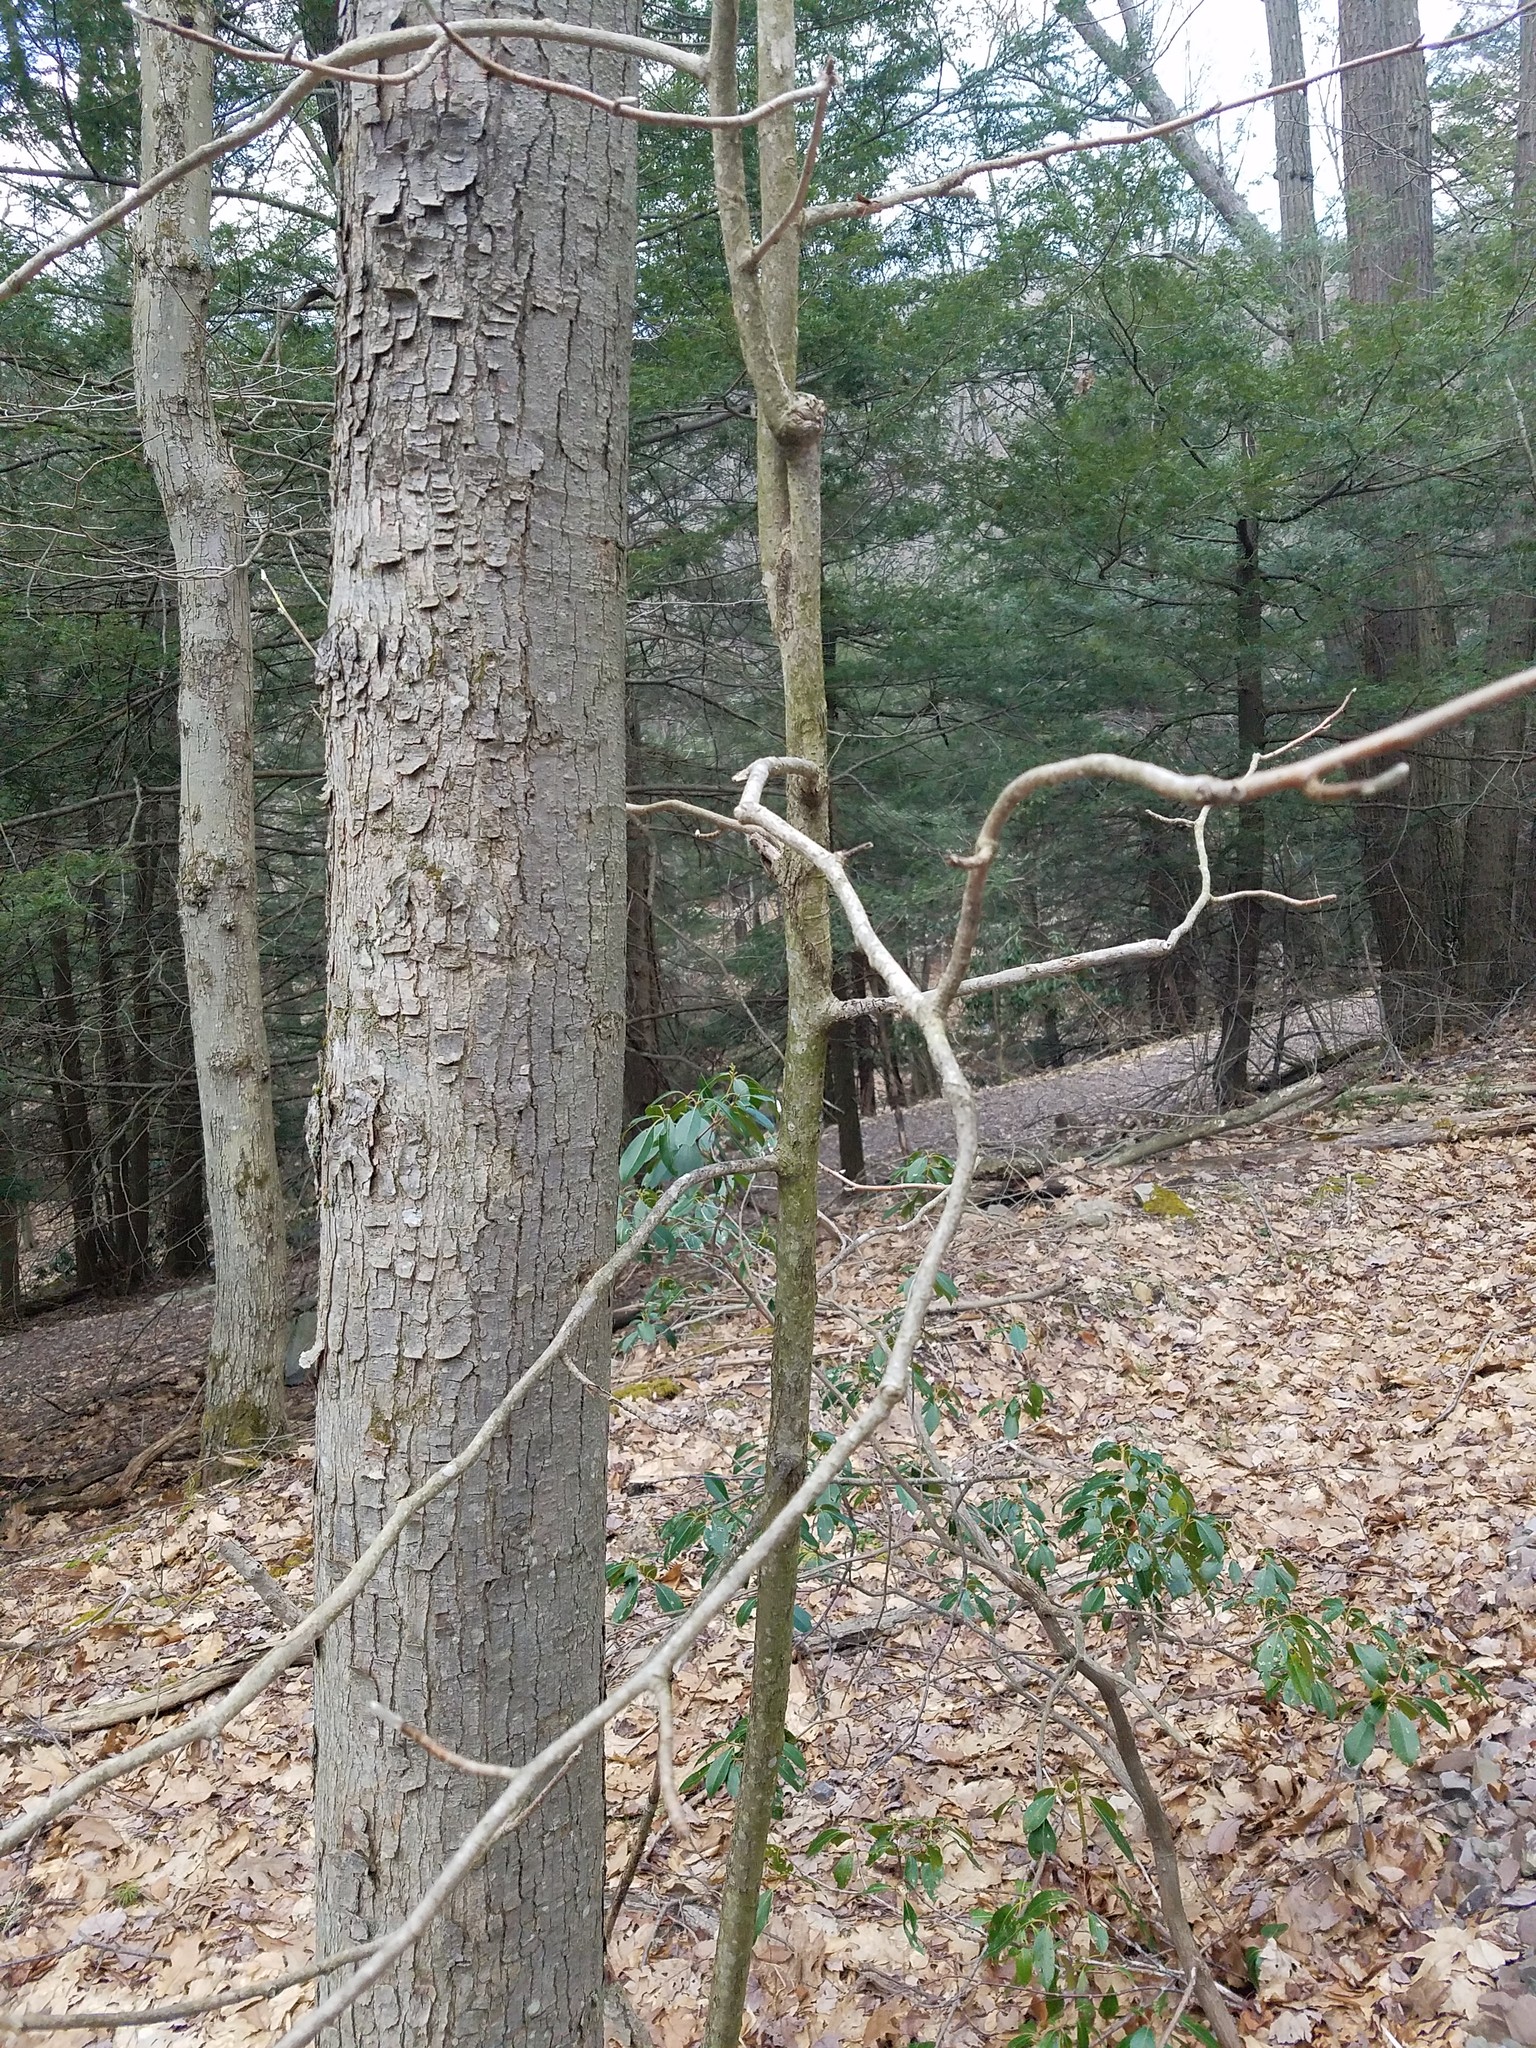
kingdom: Plantae
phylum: Tracheophyta
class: Magnoliopsida
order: Magnoliales
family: Magnoliaceae
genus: Magnolia
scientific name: Magnolia acuminata
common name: Cucumber magnolia
